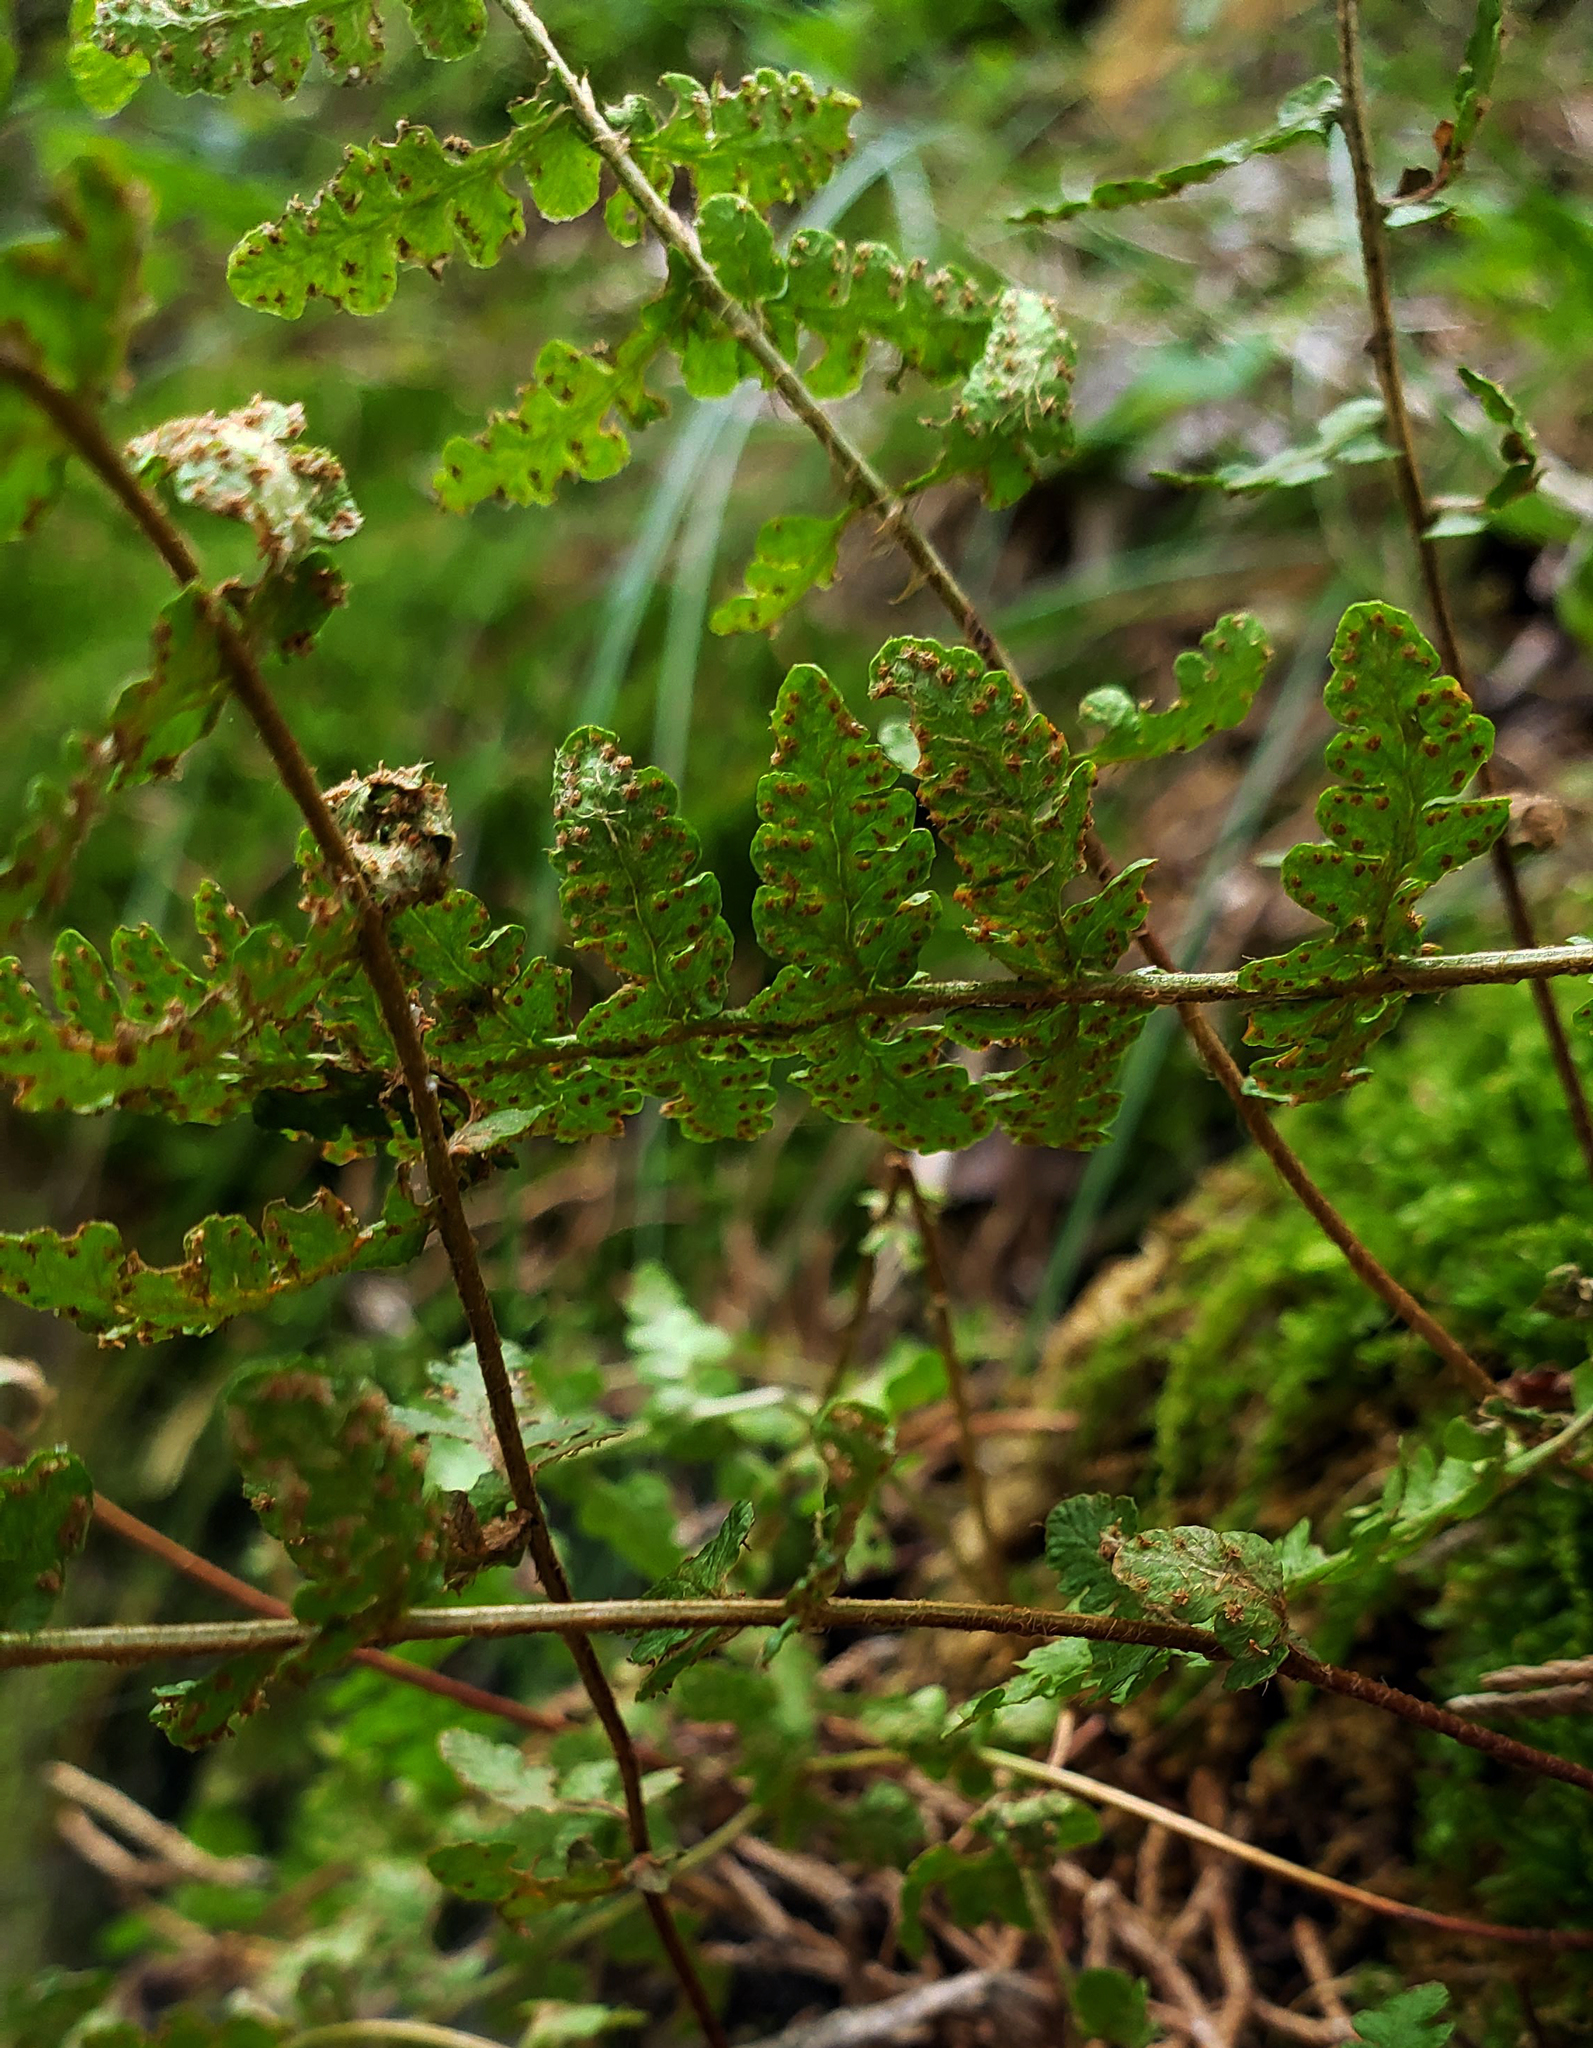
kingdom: Plantae
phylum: Tracheophyta
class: Polypodiopsida
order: Polypodiales
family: Woodsiaceae
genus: Woodsia
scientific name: Woodsia ilvensis
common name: Fragrant woodsia
